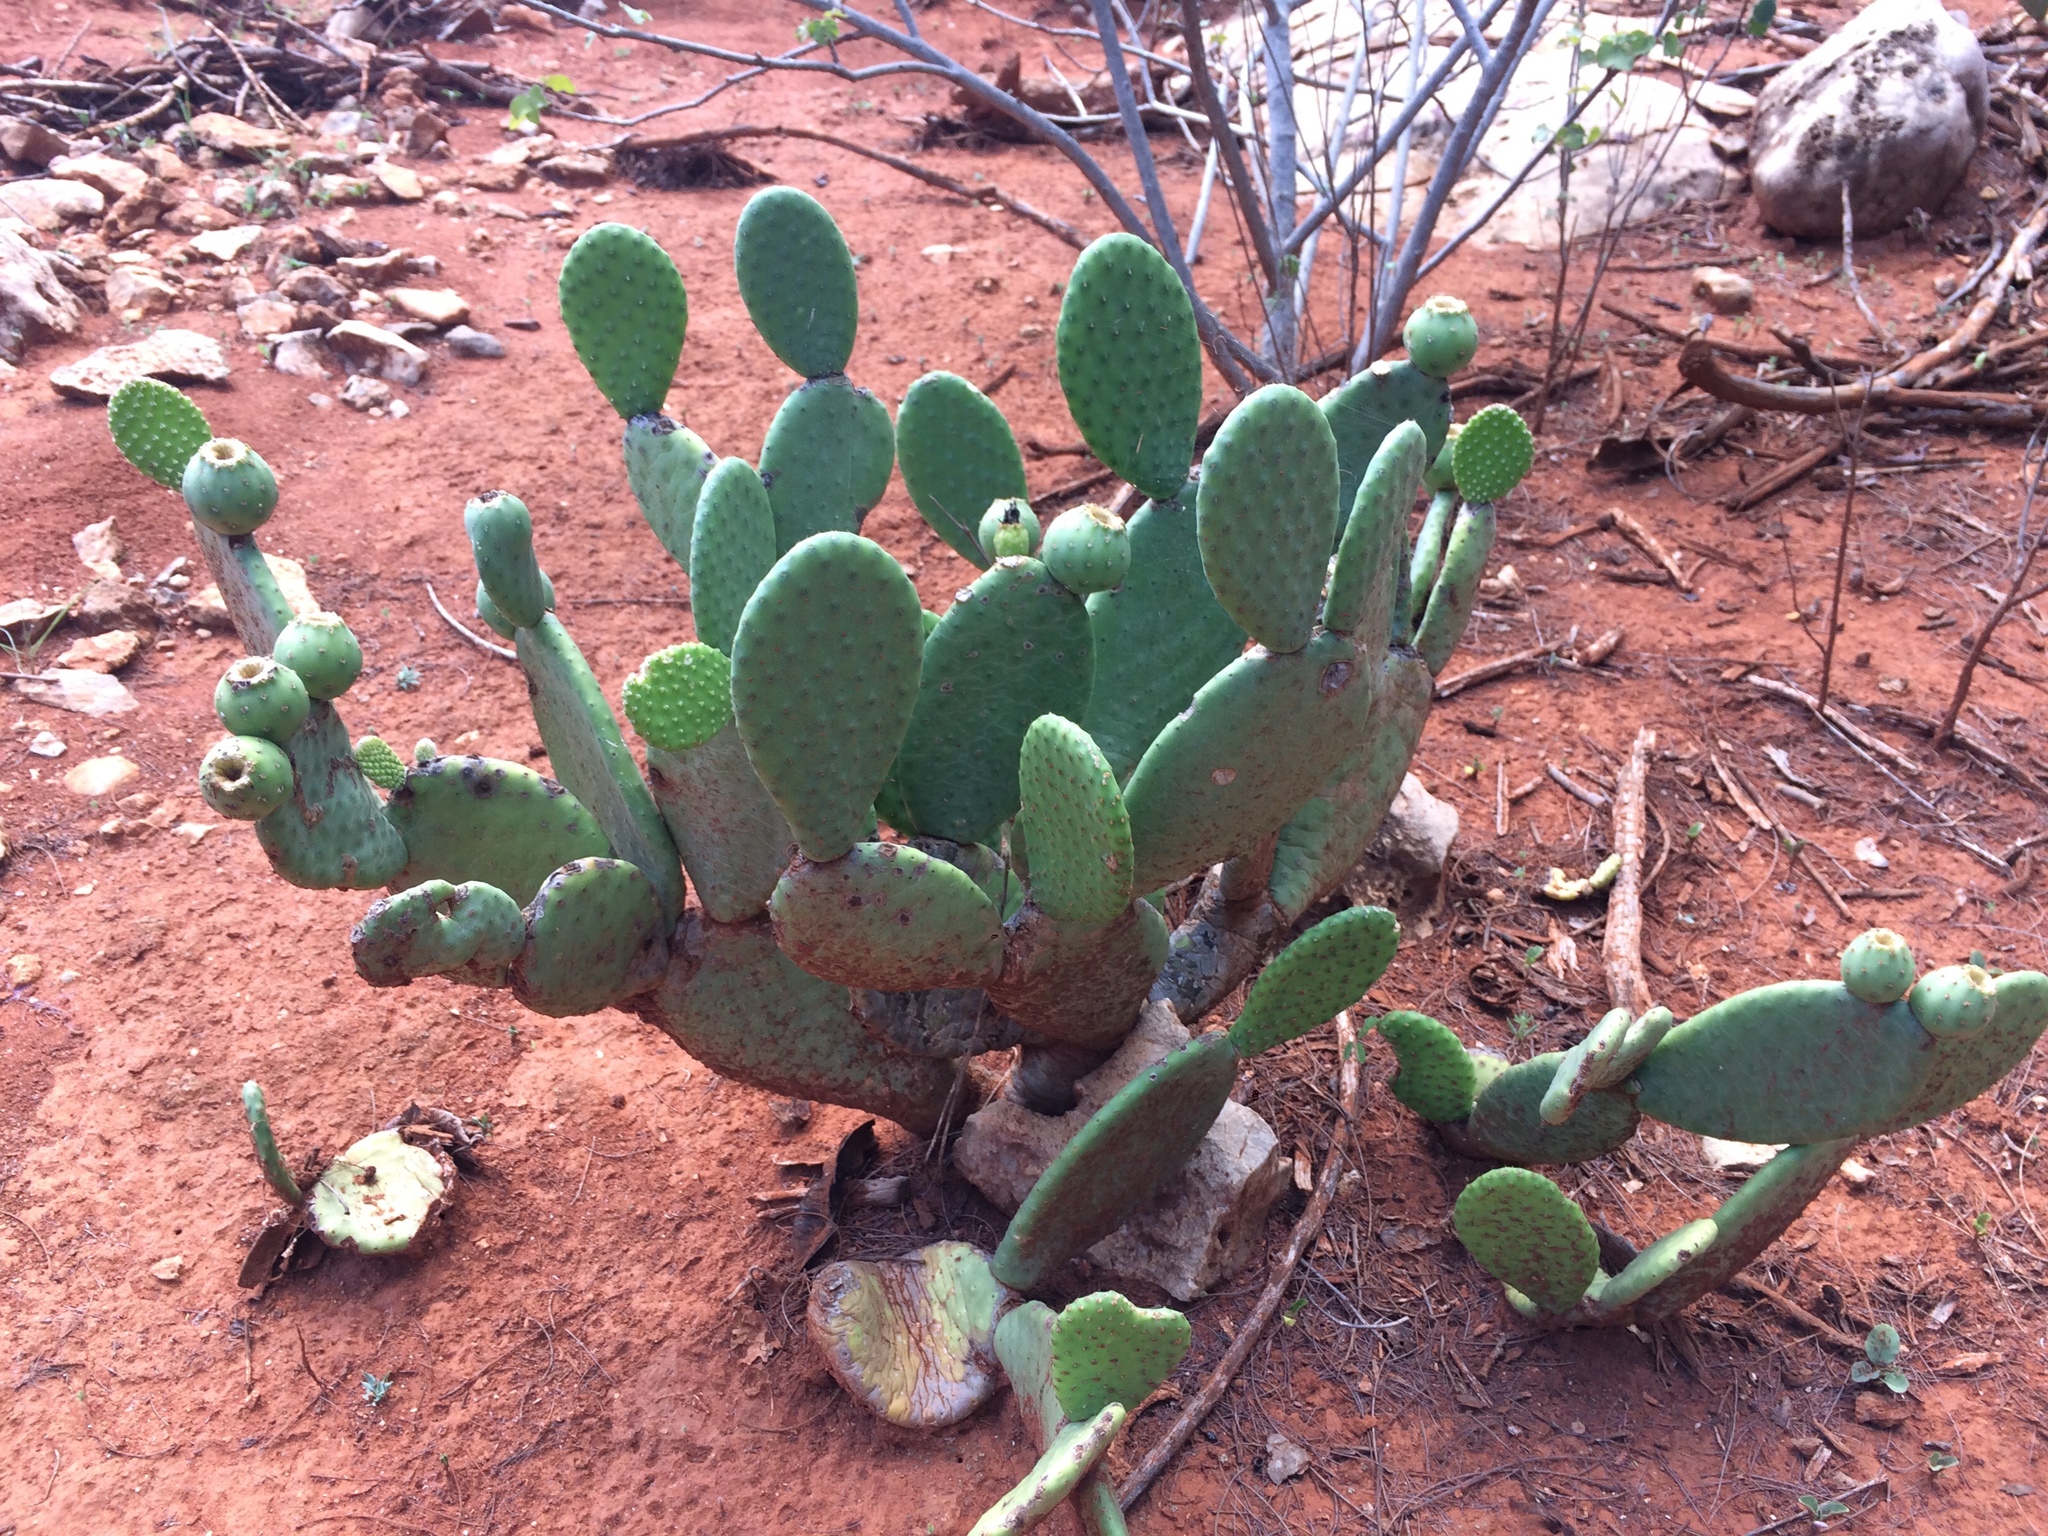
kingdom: Plantae
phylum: Tracheophyta
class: Magnoliopsida
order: Caryophyllales
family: Cactaceae
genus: Tacinga
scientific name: Tacinga inamoena
